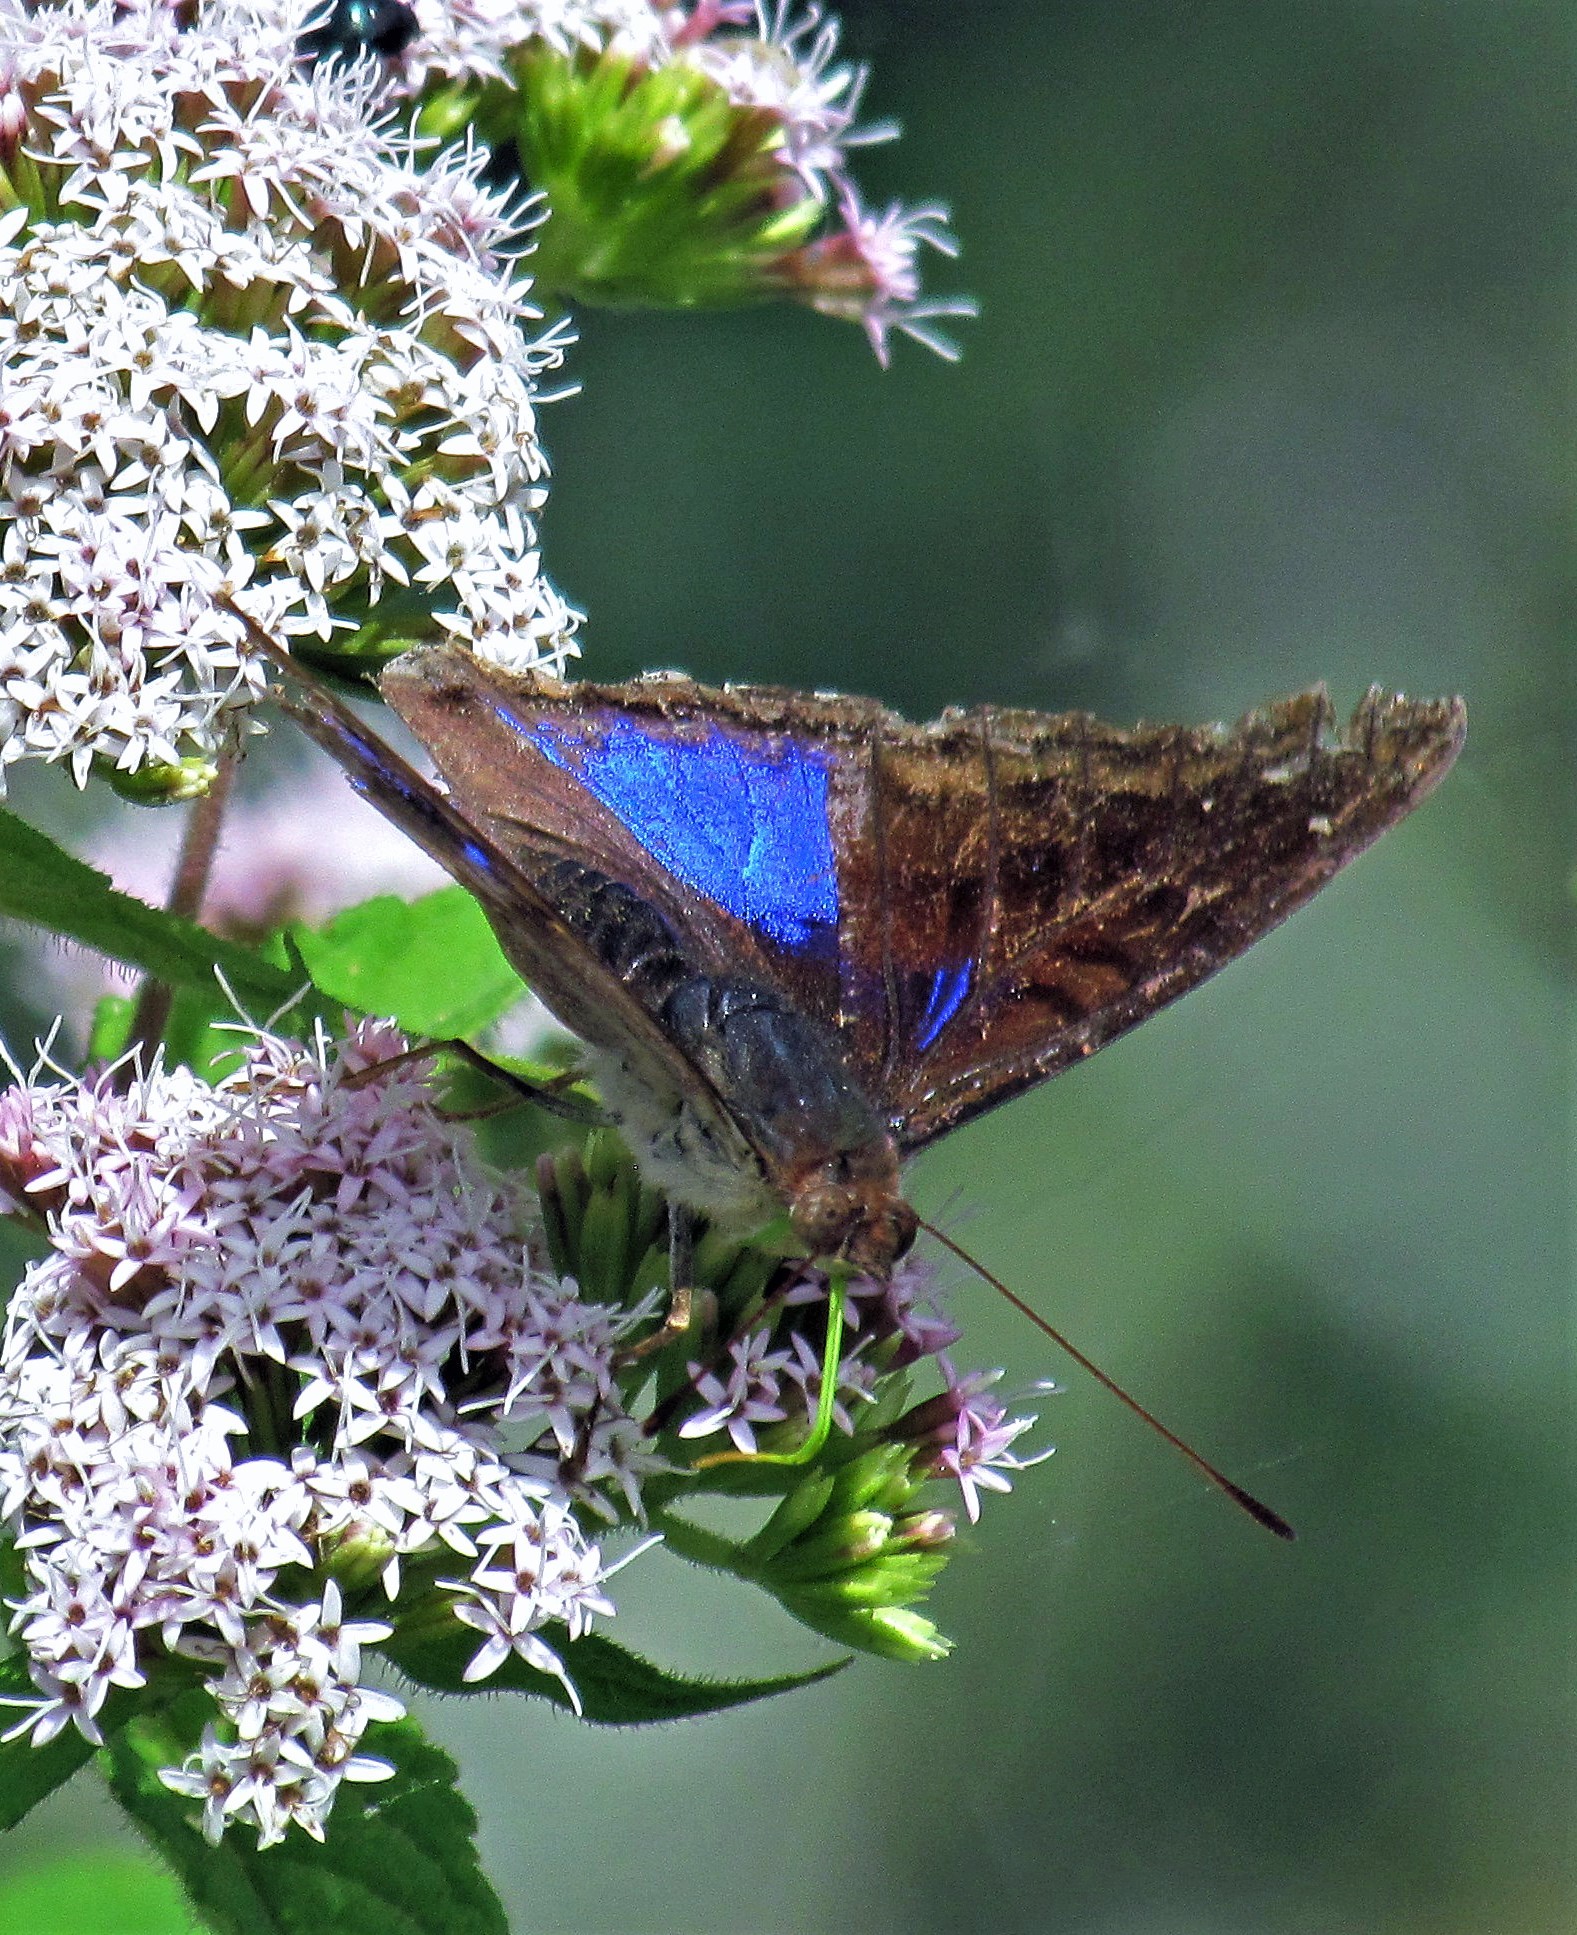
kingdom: Animalia
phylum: Arthropoda
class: Insecta
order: Lepidoptera
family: Nymphalidae
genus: Doxocopa
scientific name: Doxocopa cyane
